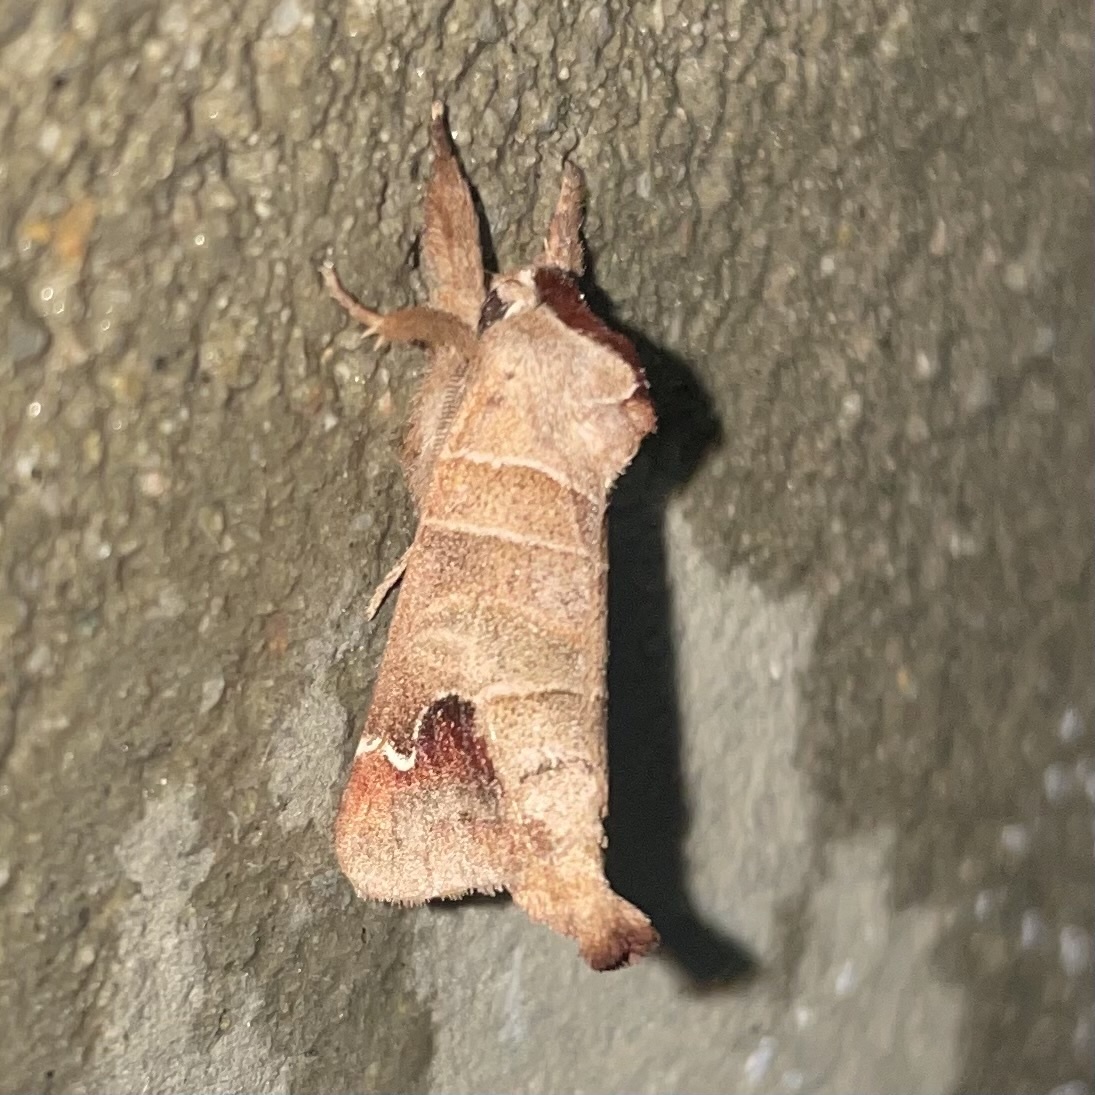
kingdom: Animalia
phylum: Arthropoda
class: Insecta
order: Lepidoptera
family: Notodontidae
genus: Clostera
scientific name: Clostera albosigma
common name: Sigmoid prominent
